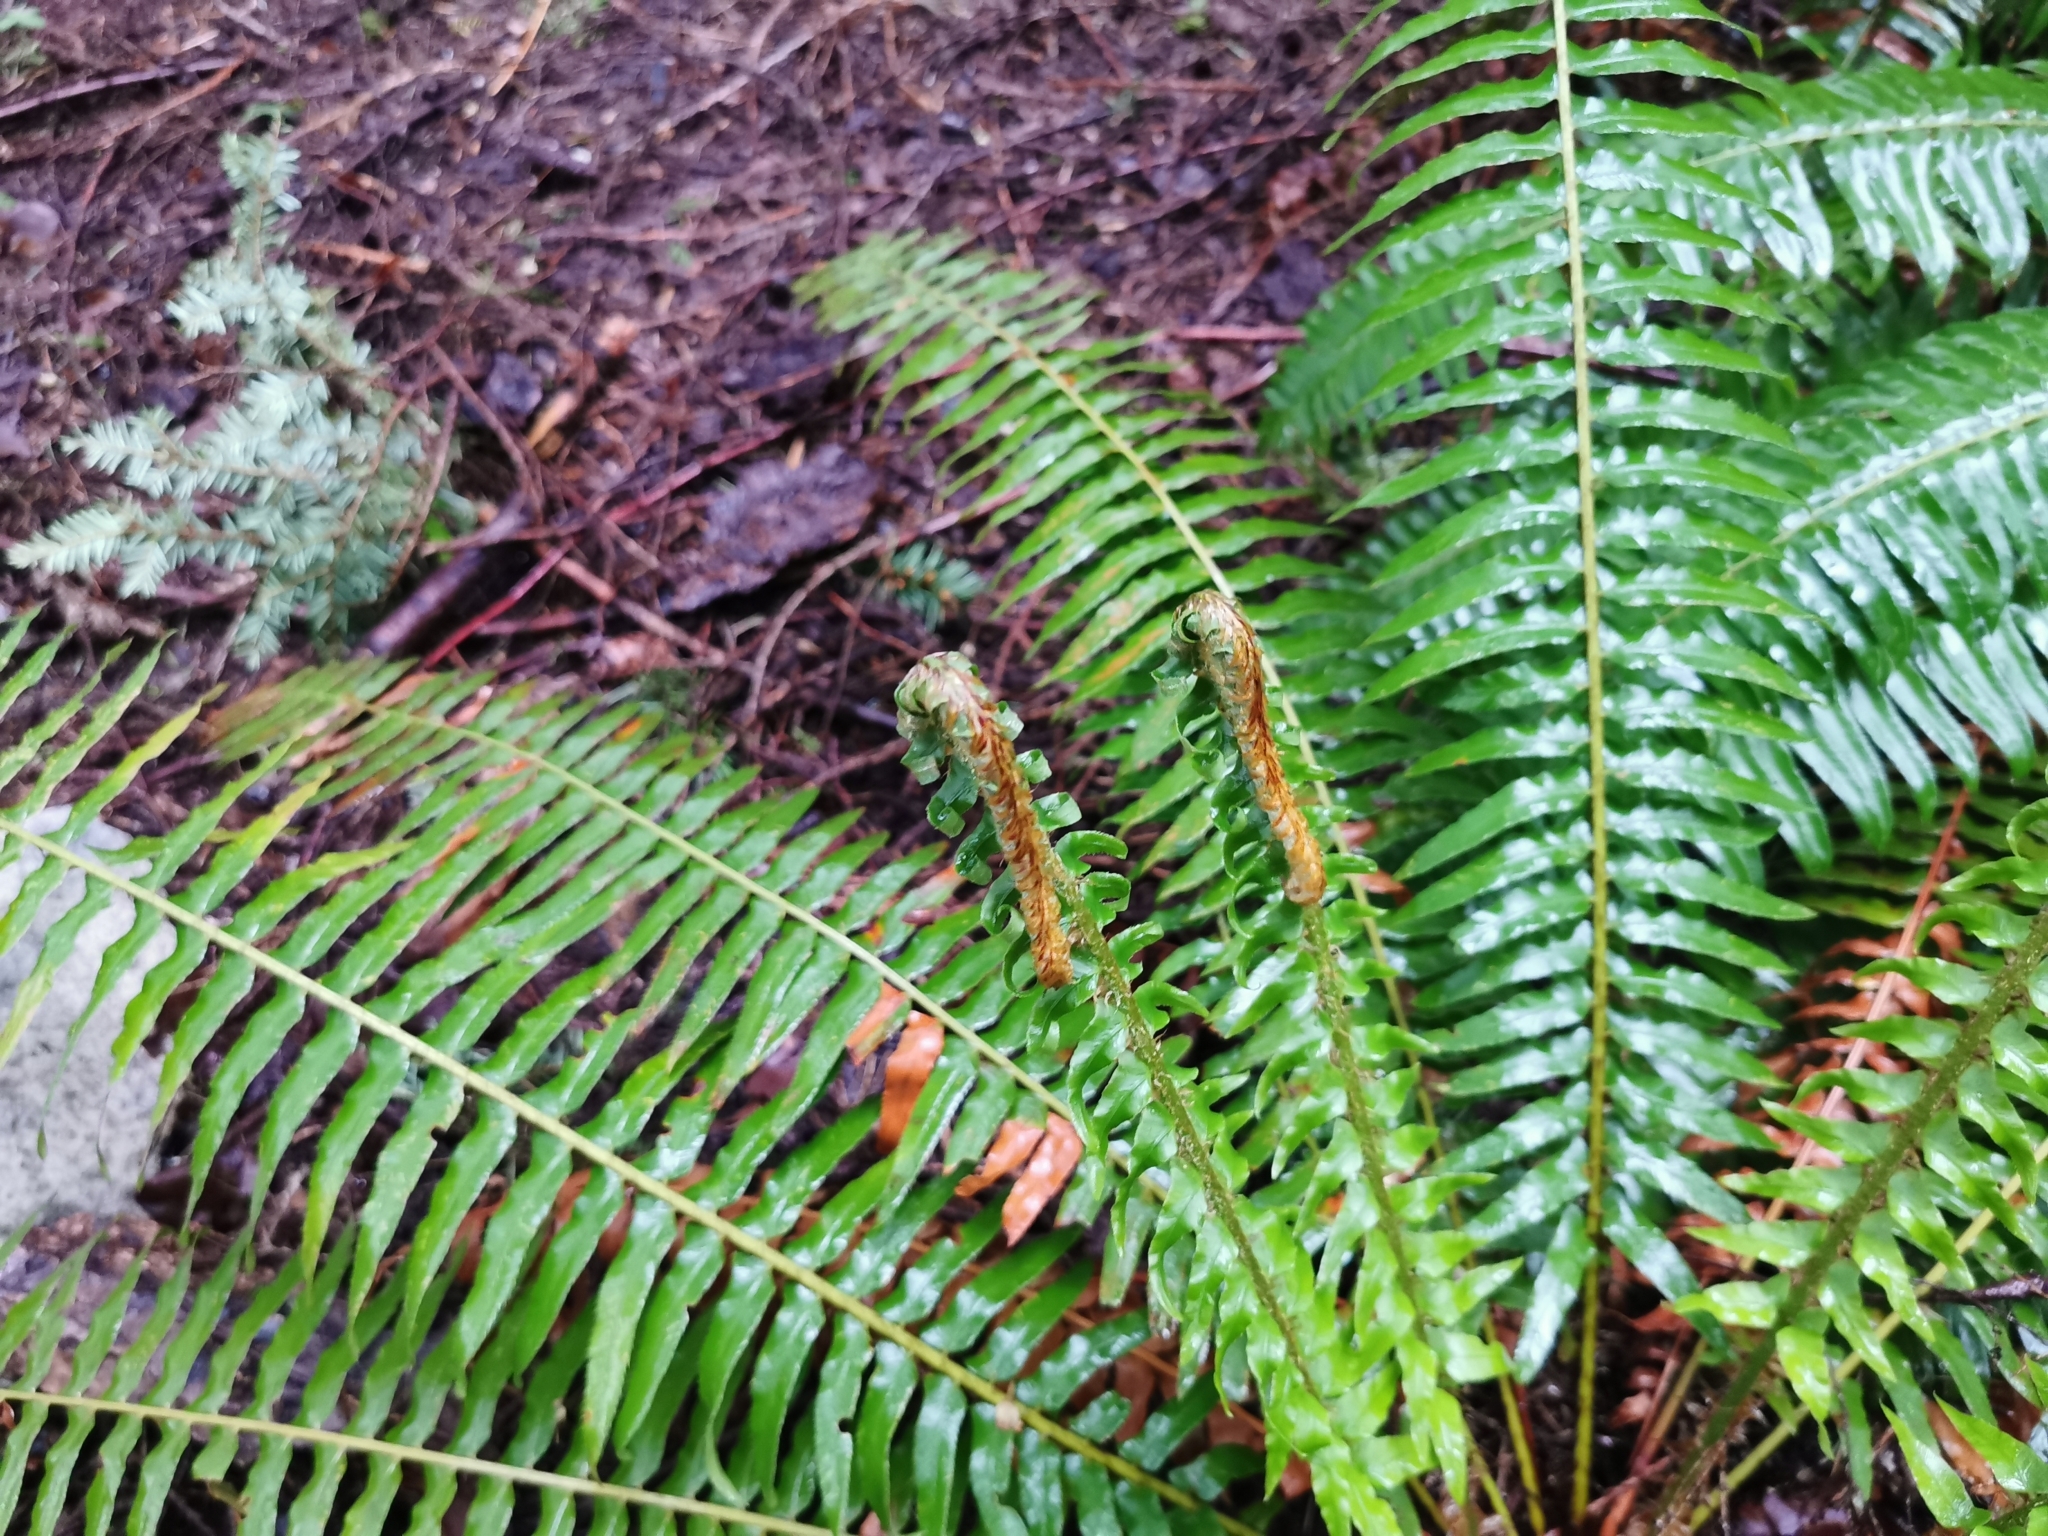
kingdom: Plantae
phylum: Tracheophyta
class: Polypodiopsida
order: Polypodiales
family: Dryopteridaceae
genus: Polystichum
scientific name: Polystichum munitum
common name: Western sword-fern
